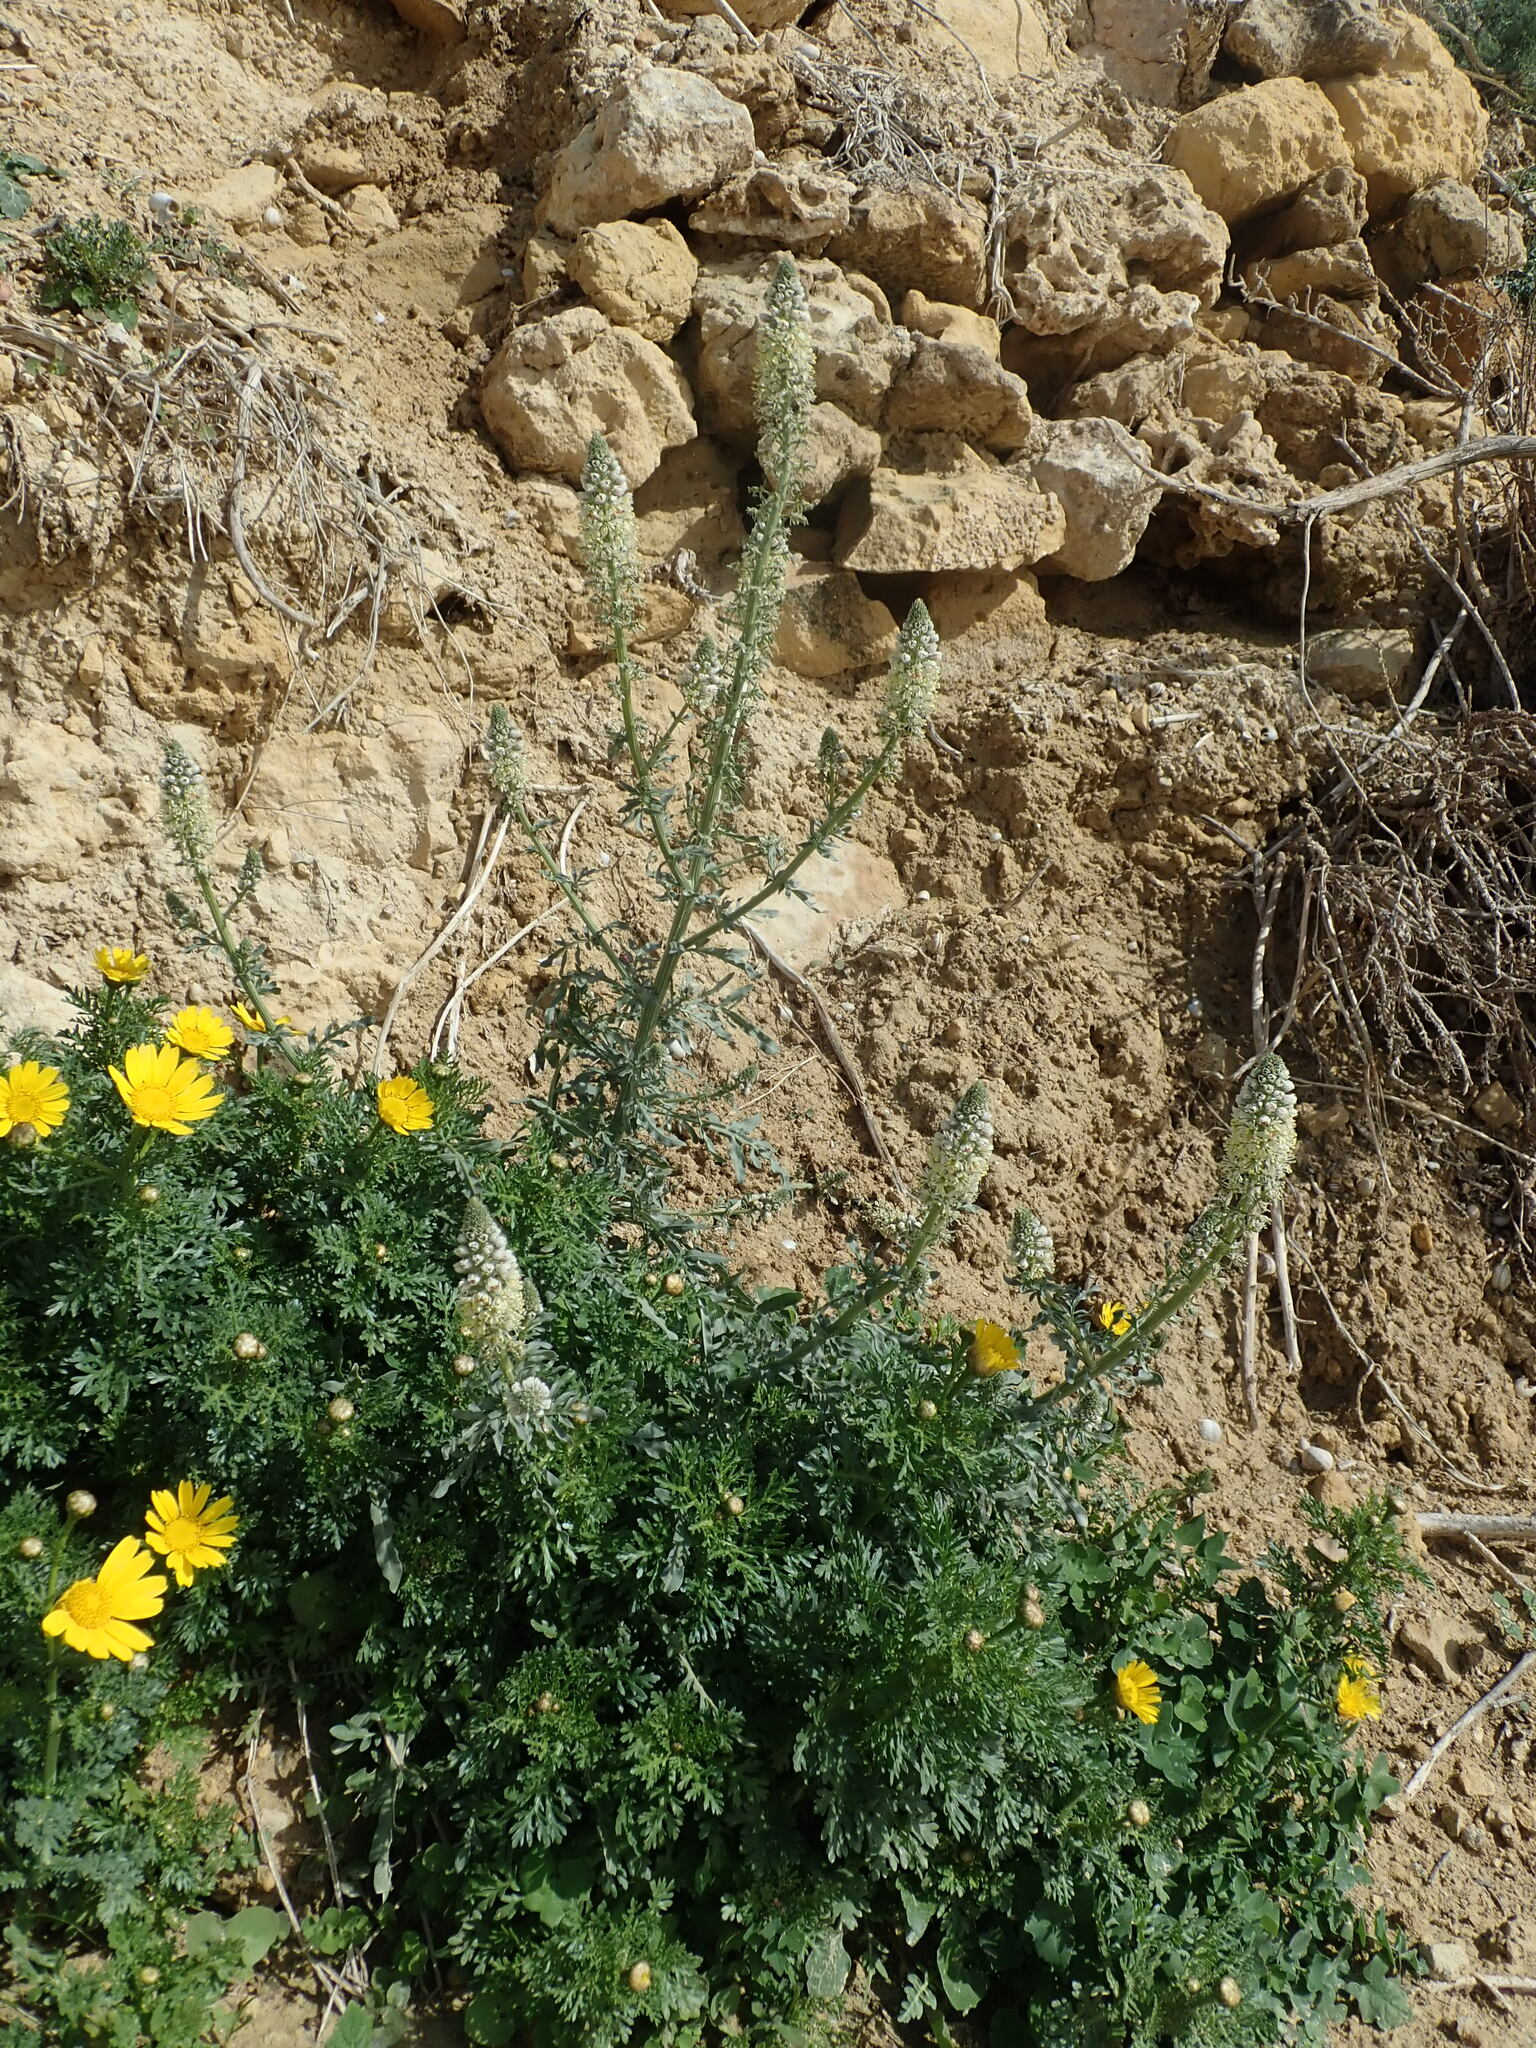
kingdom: Plantae
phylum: Tracheophyta
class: Magnoliopsida
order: Brassicales
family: Resedaceae
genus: Reseda
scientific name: Reseda alba
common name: White mignonette
